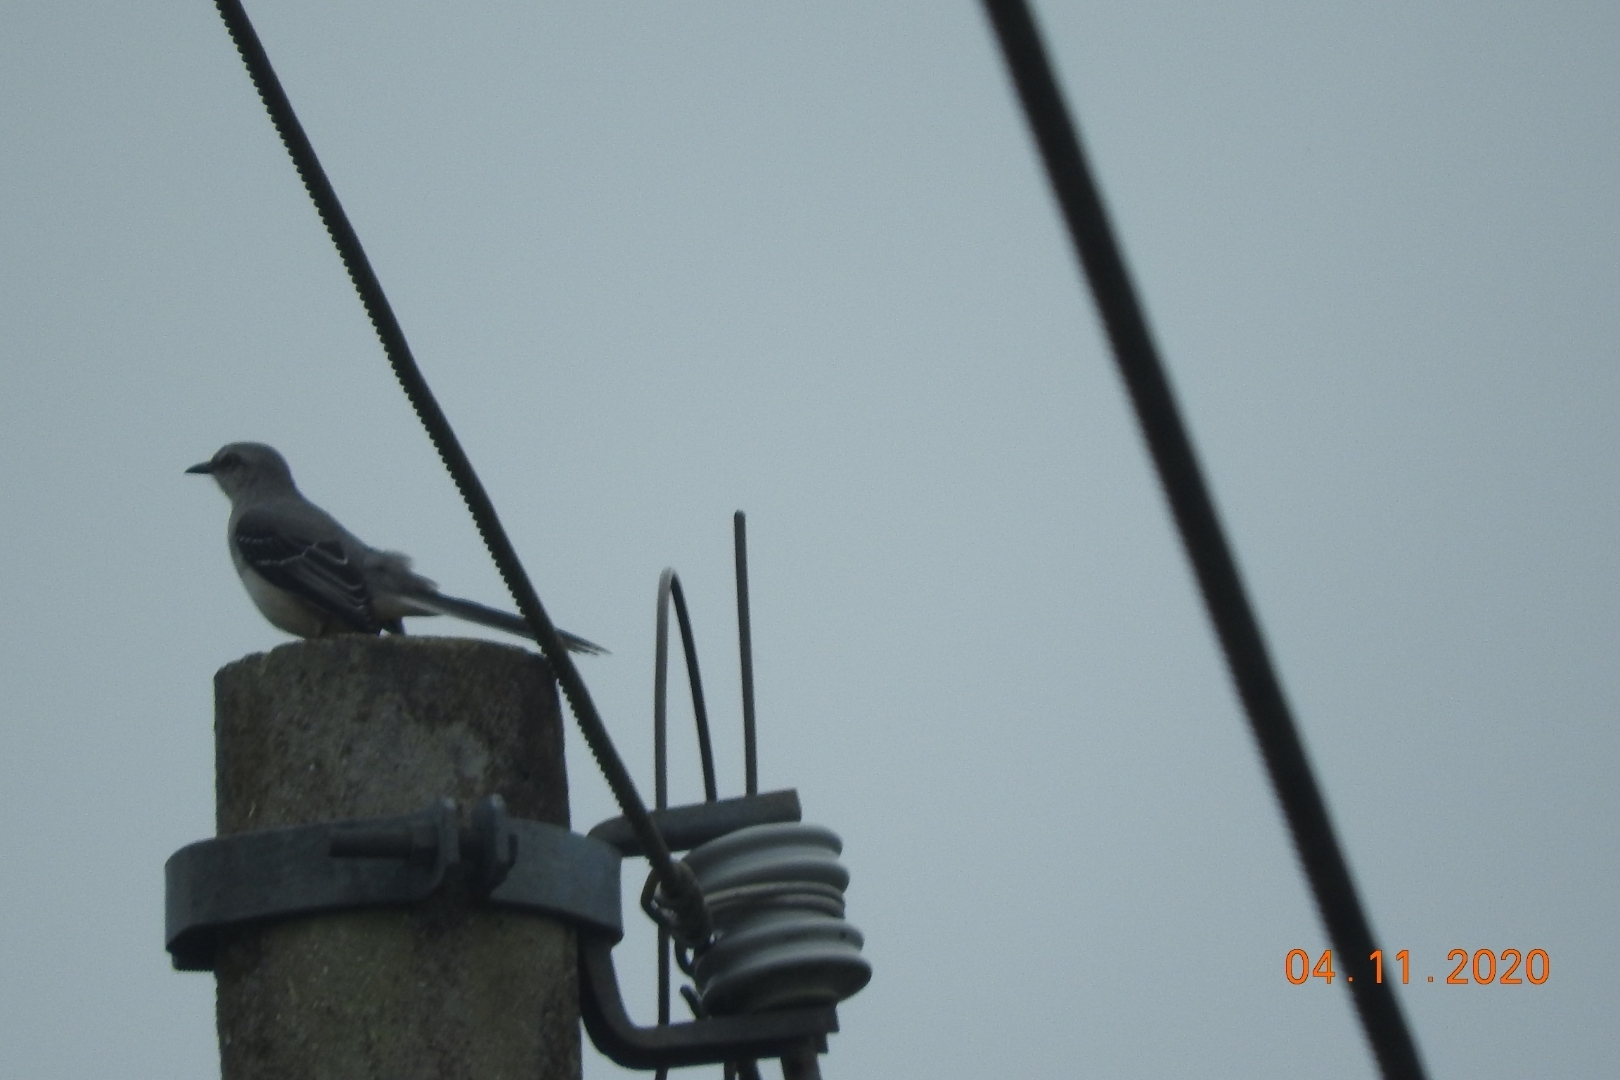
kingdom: Animalia
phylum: Chordata
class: Aves
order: Passeriformes
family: Mimidae
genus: Mimus
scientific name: Mimus gilvus
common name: Tropical mockingbird
